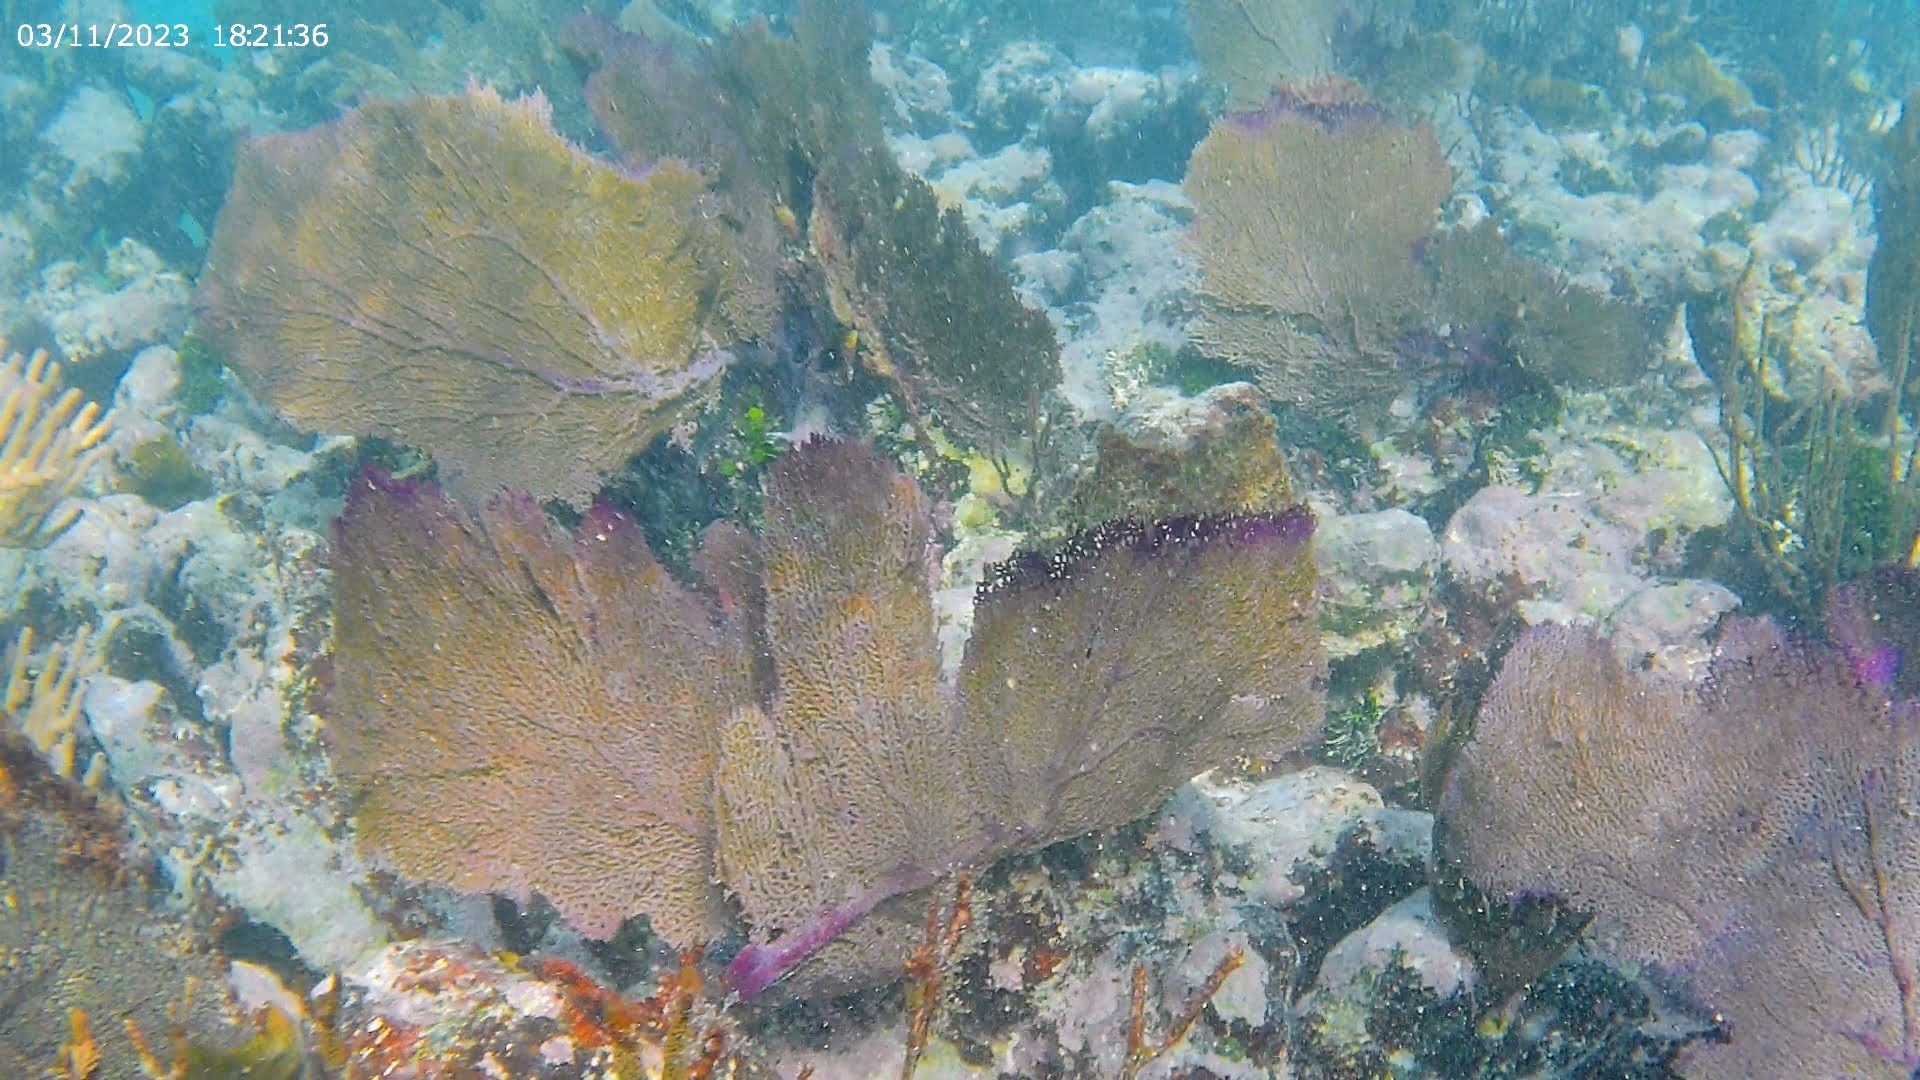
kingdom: Animalia
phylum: Cnidaria
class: Anthozoa
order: Malacalcyonacea
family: Gorgoniidae
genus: Gorgonia
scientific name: Gorgonia ventalina
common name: Common sea fan
